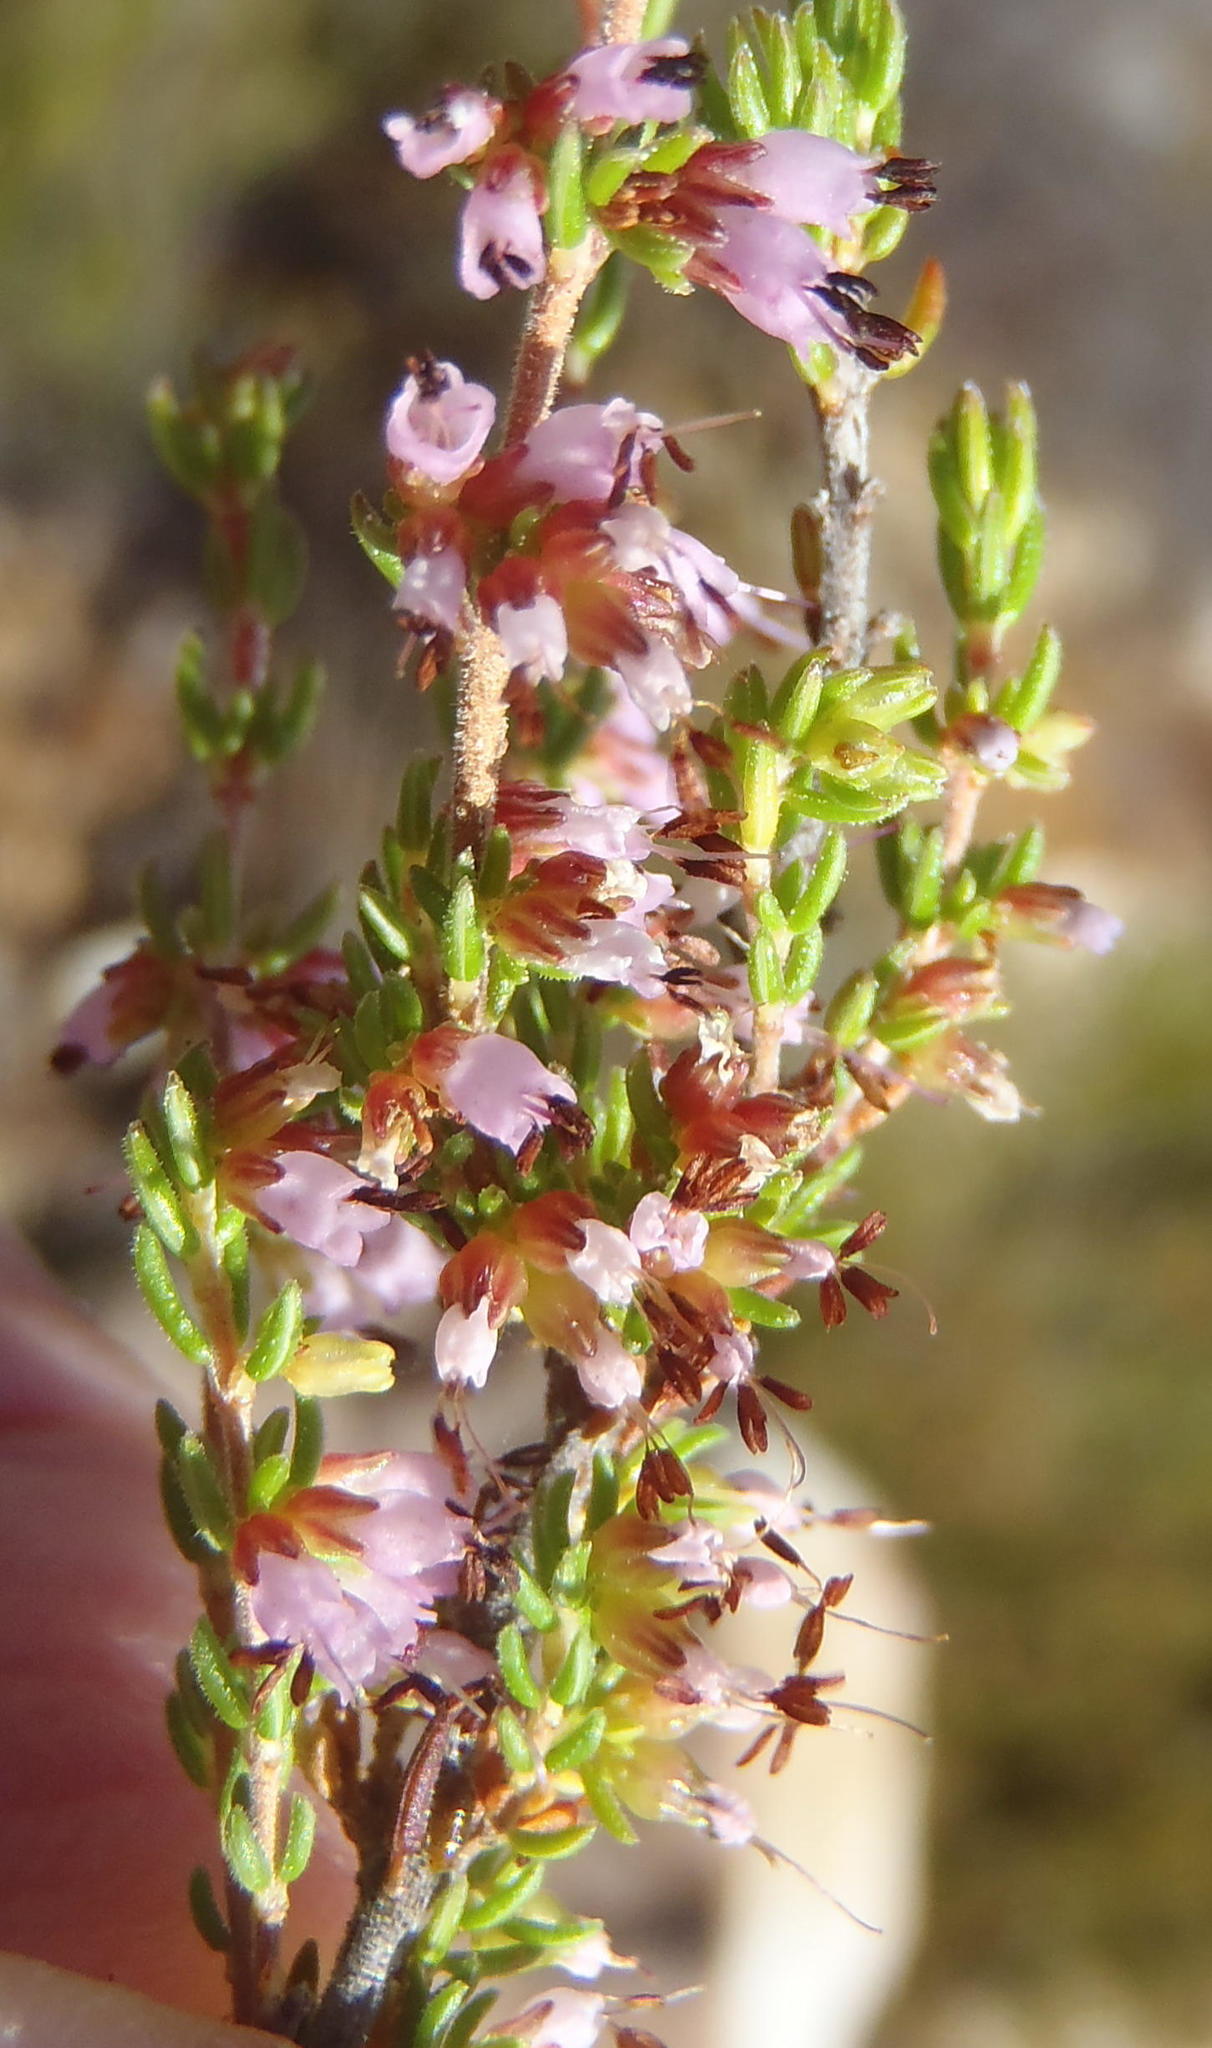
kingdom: Plantae
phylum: Tracheophyta
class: Magnoliopsida
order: Ericales
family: Ericaceae
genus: Erica
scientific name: Erica anguliger
